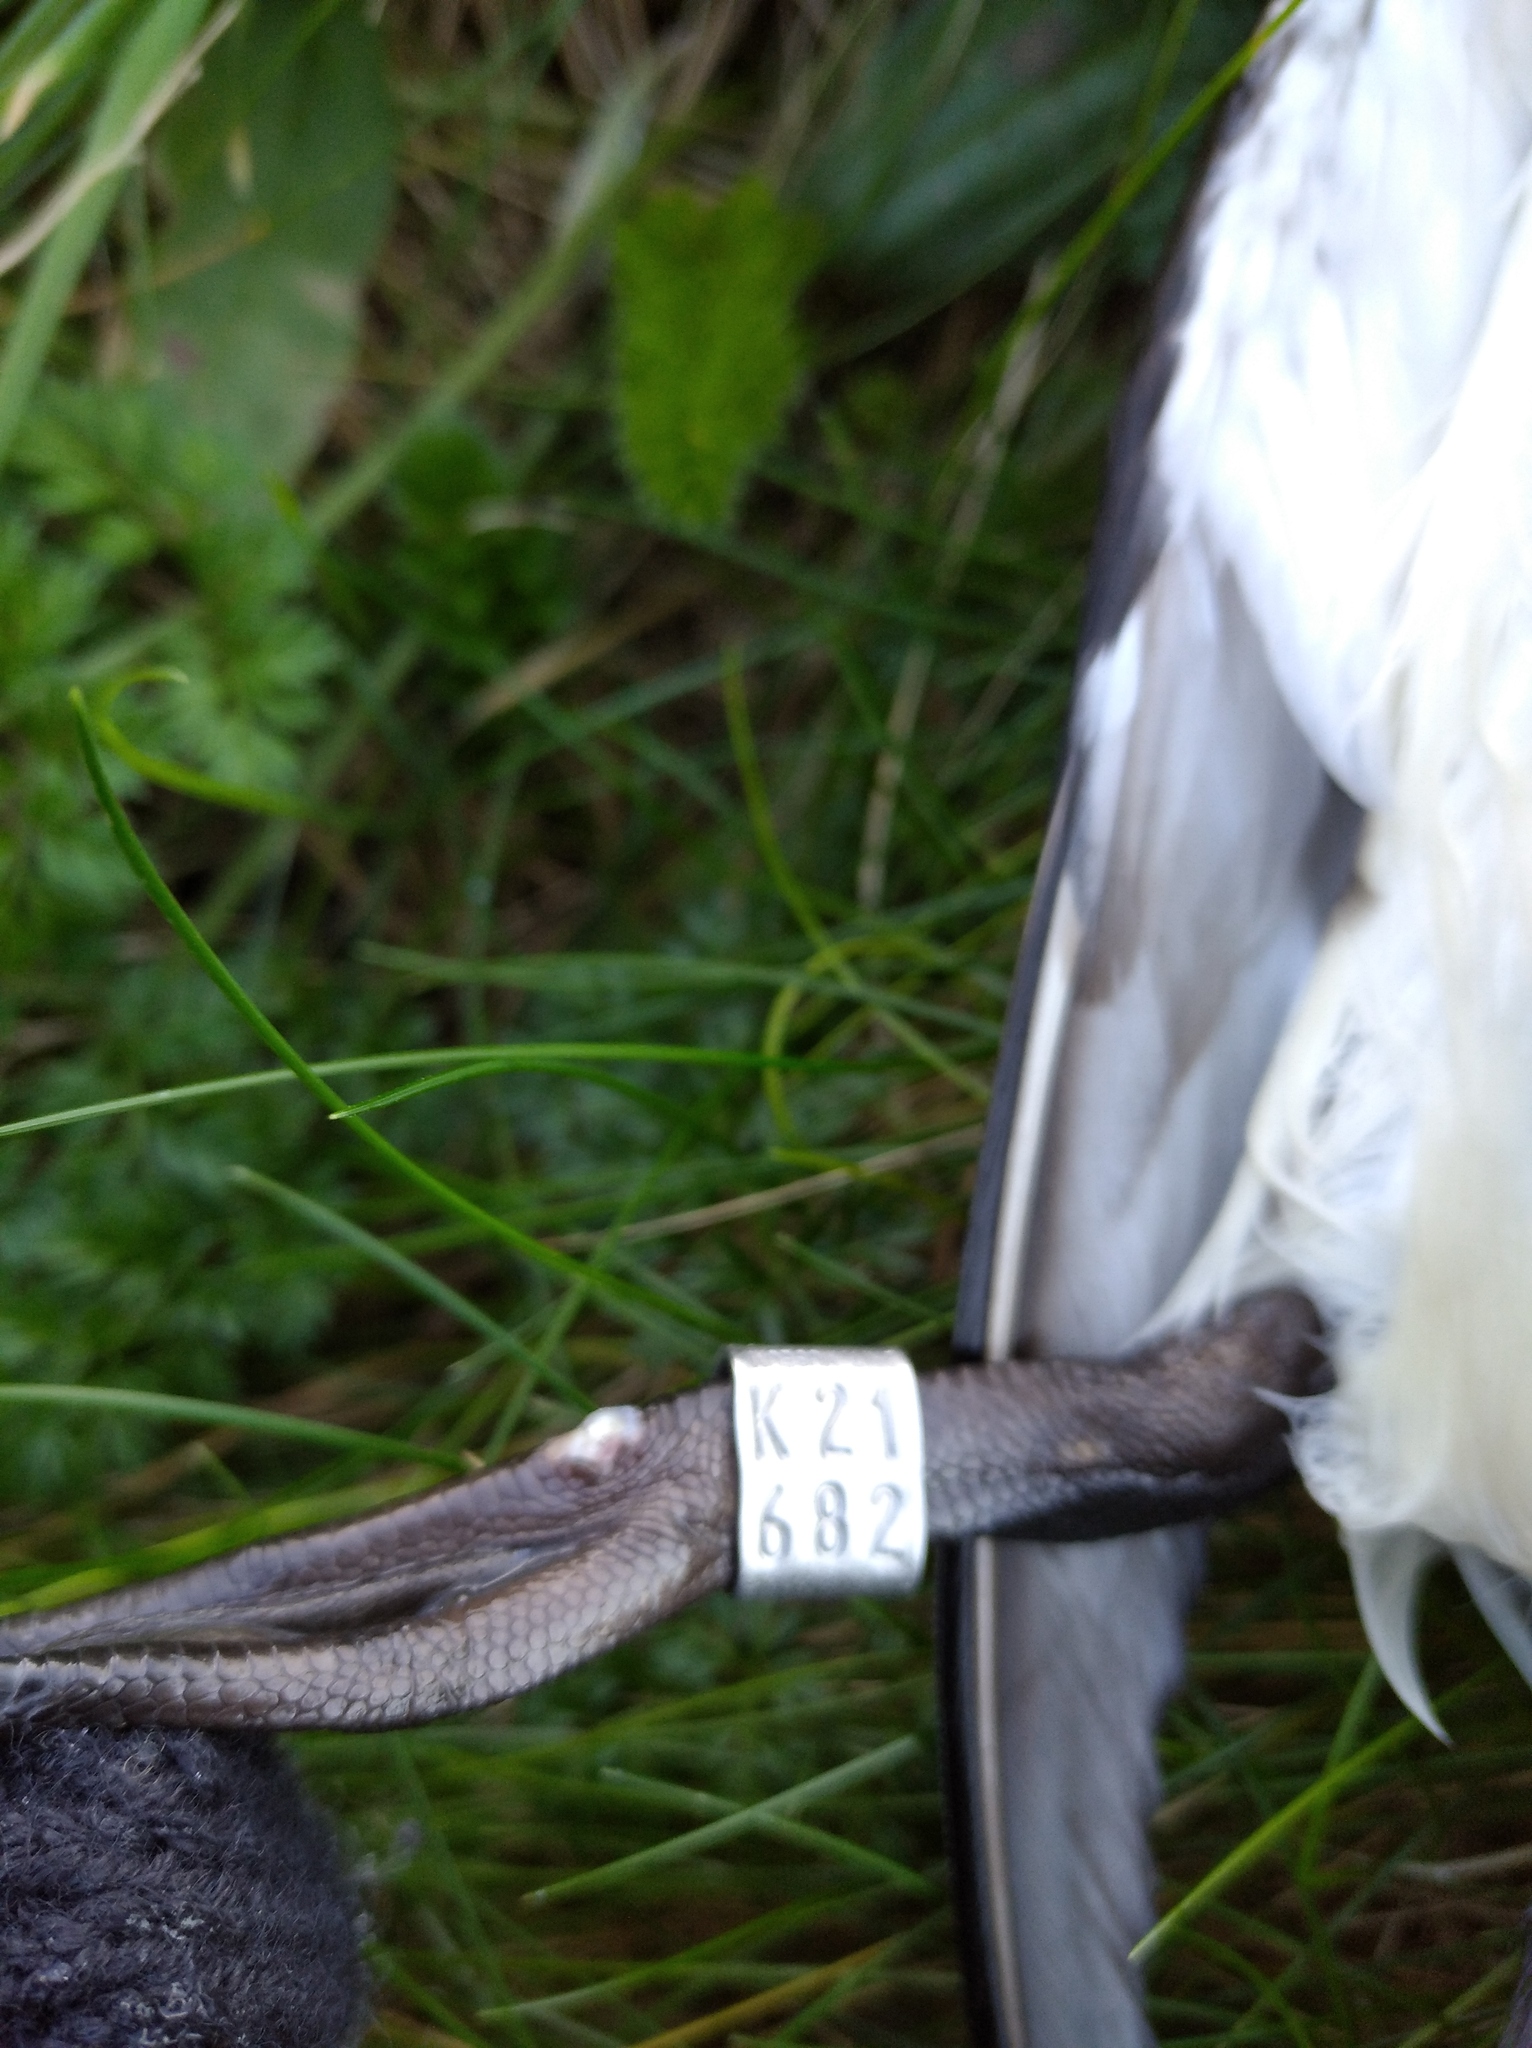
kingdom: Animalia
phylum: Chordata
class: Aves
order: Charadriiformes
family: Alcidae
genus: Alca
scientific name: Alca torda
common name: Razorbill
